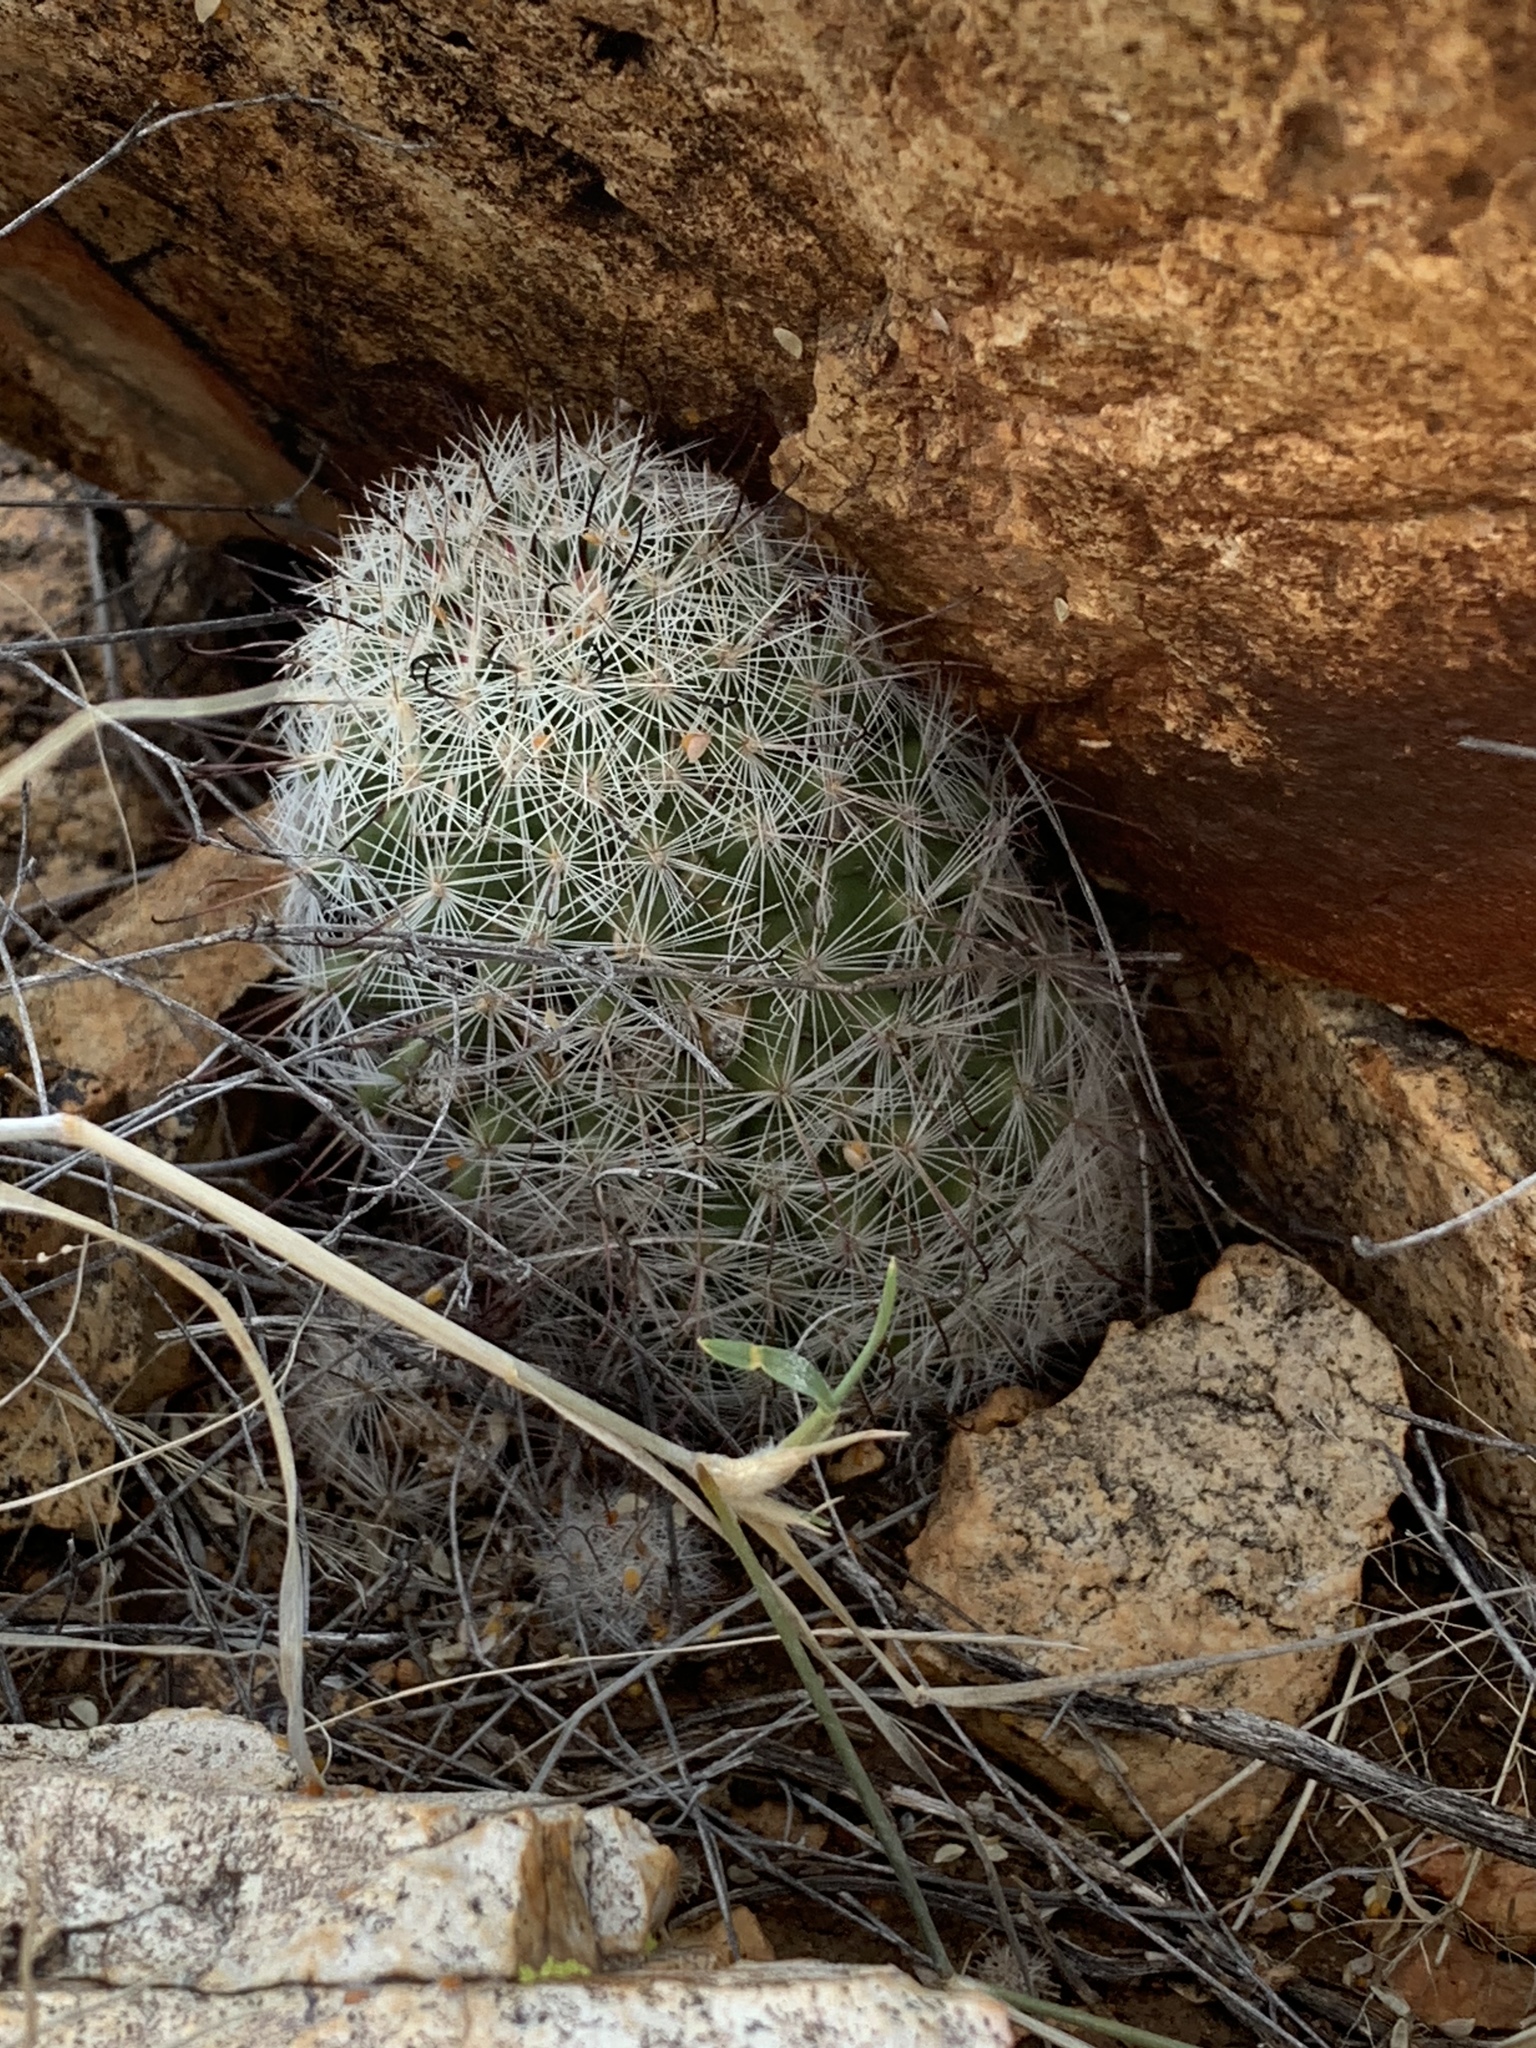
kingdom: Plantae
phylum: Tracheophyta
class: Magnoliopsida
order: Caryophyllales
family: Cactaceae
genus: Cochemiea
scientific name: Cochemiea grahamii
